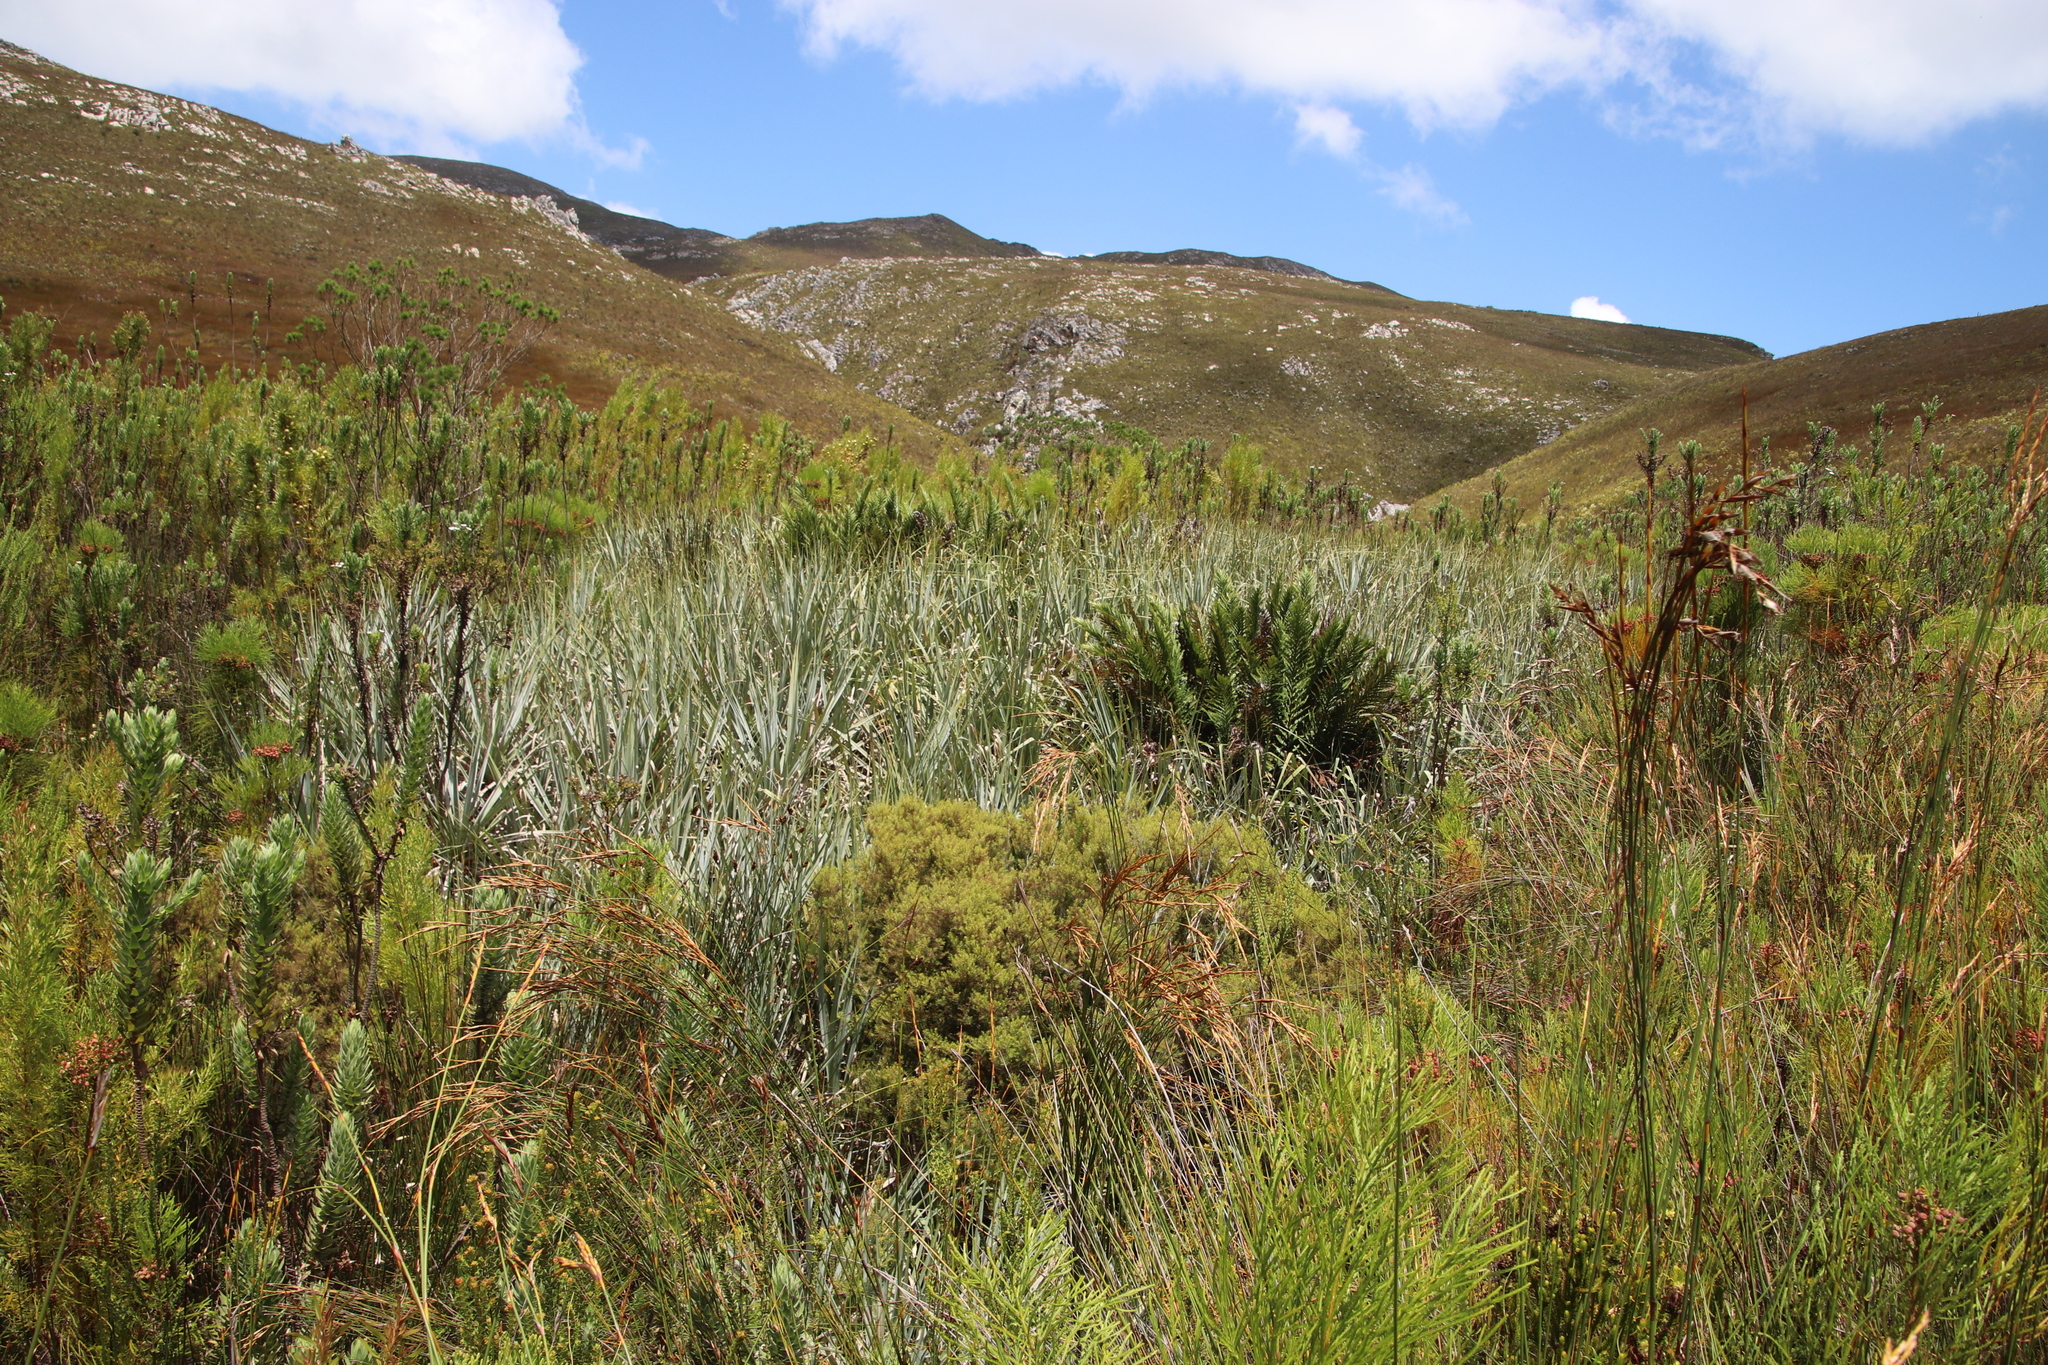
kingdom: Plantae
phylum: Tracheophyta
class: Liliopsida
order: Poales
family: Thurniaceae
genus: Prionium
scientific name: Prionium serratum
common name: Palmiet
